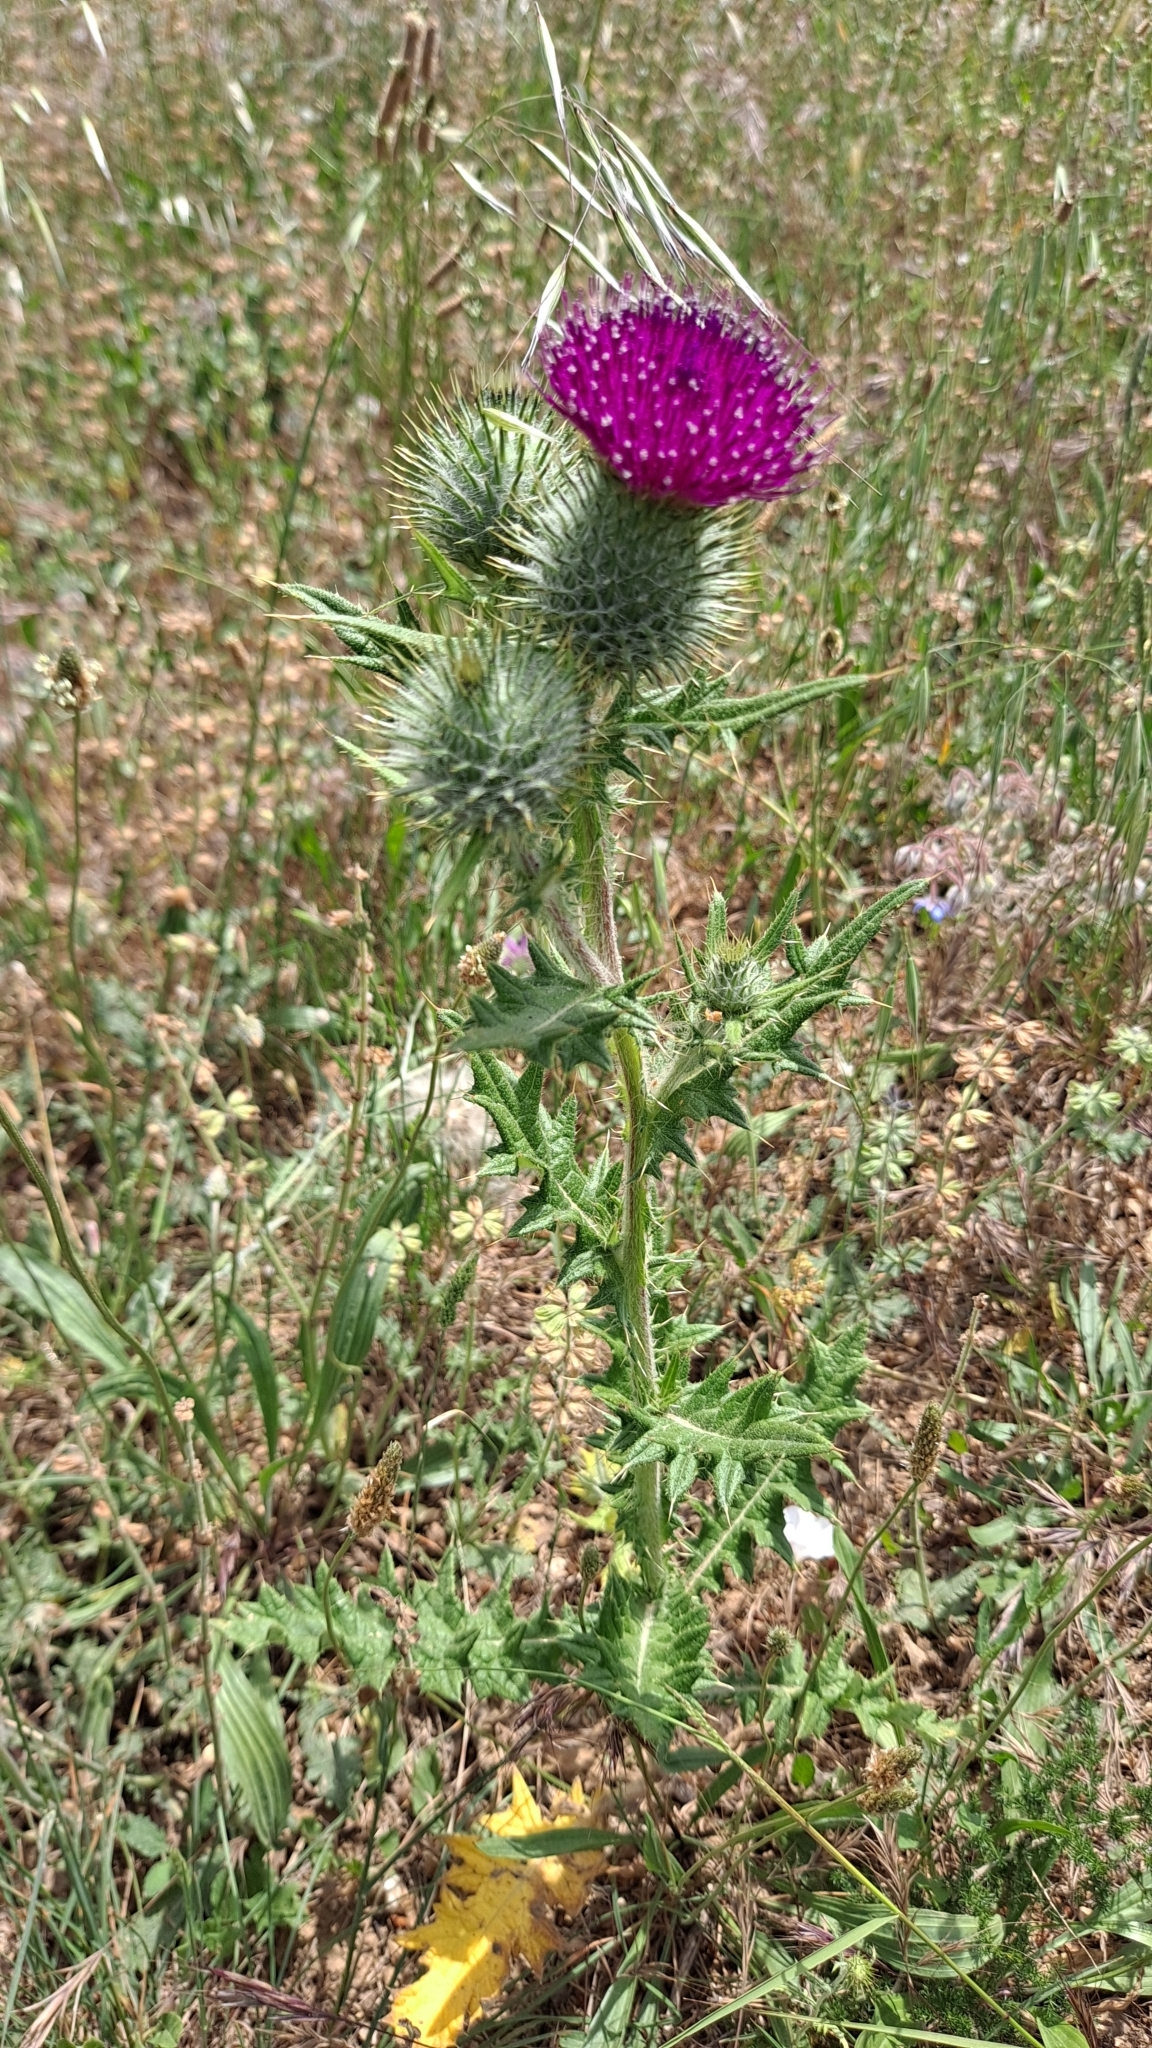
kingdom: Plantae
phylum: Tracheophyta
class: Magnoliopsida
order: Asterales
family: Asteraceae
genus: Cirsium
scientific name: Cirsium vulgare
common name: Bull thistle
